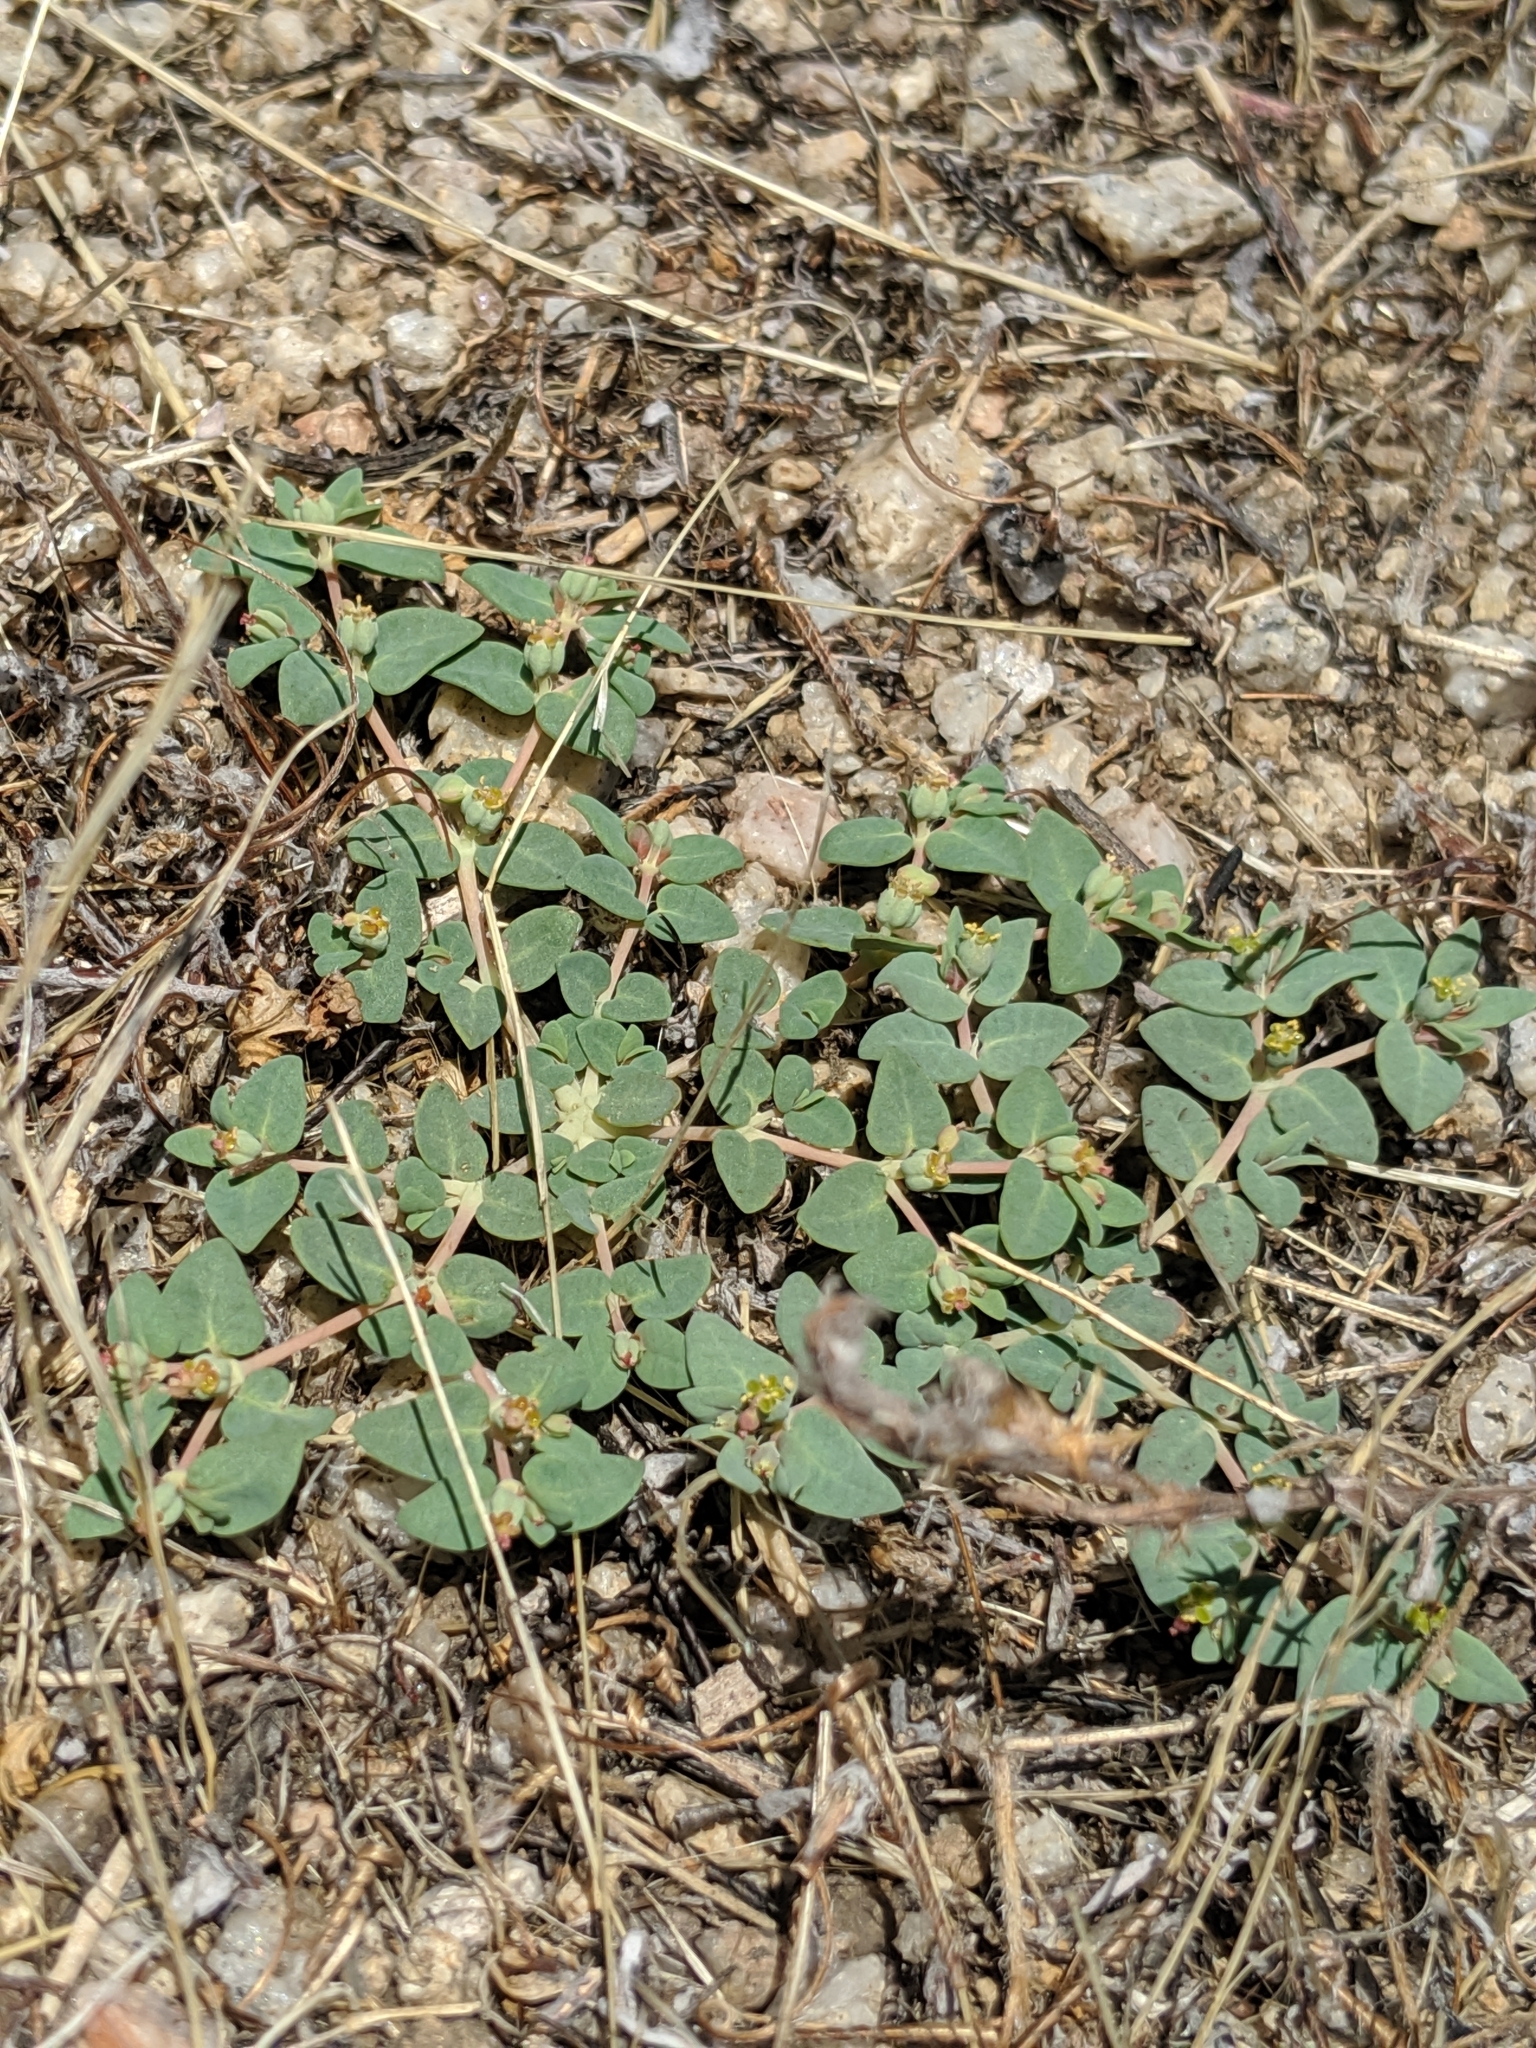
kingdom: Plantae
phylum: Tracheophyta
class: Magnoliopsida
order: Malpighiales
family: Euphorbiaceae
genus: Euphorbia
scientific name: Euphorbia ocellata
